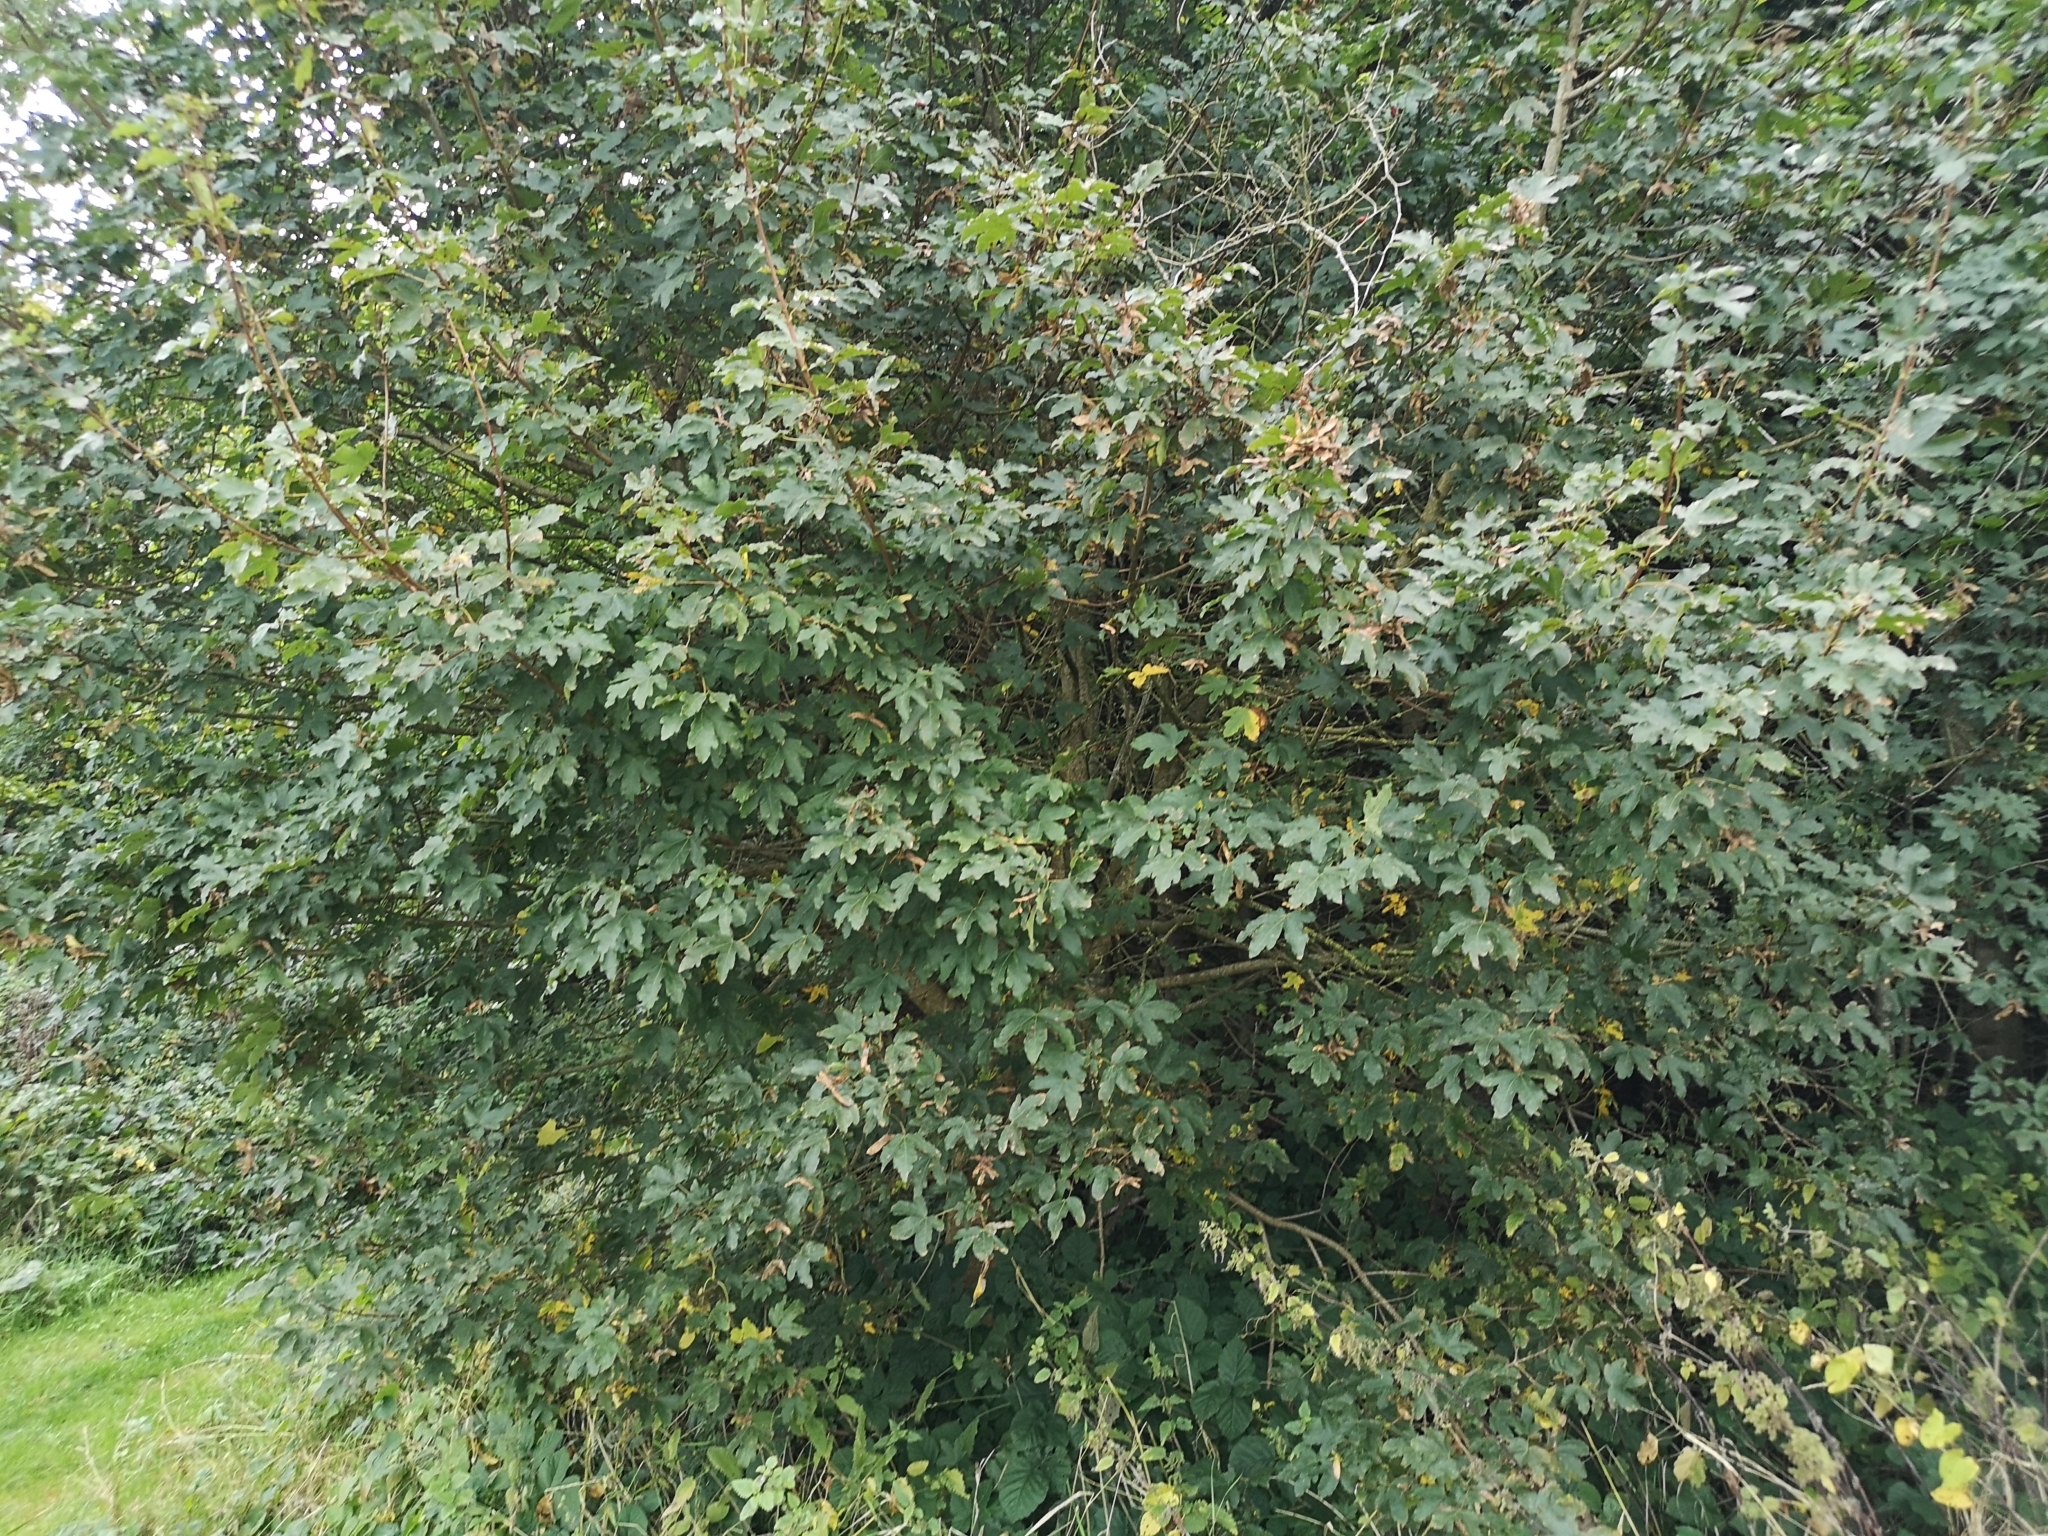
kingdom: Plantae
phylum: Tracheophyta
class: Magnoliopsida
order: Sapindales
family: Sapindaceae
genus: Acer
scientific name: Acer campestre
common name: Field maple
